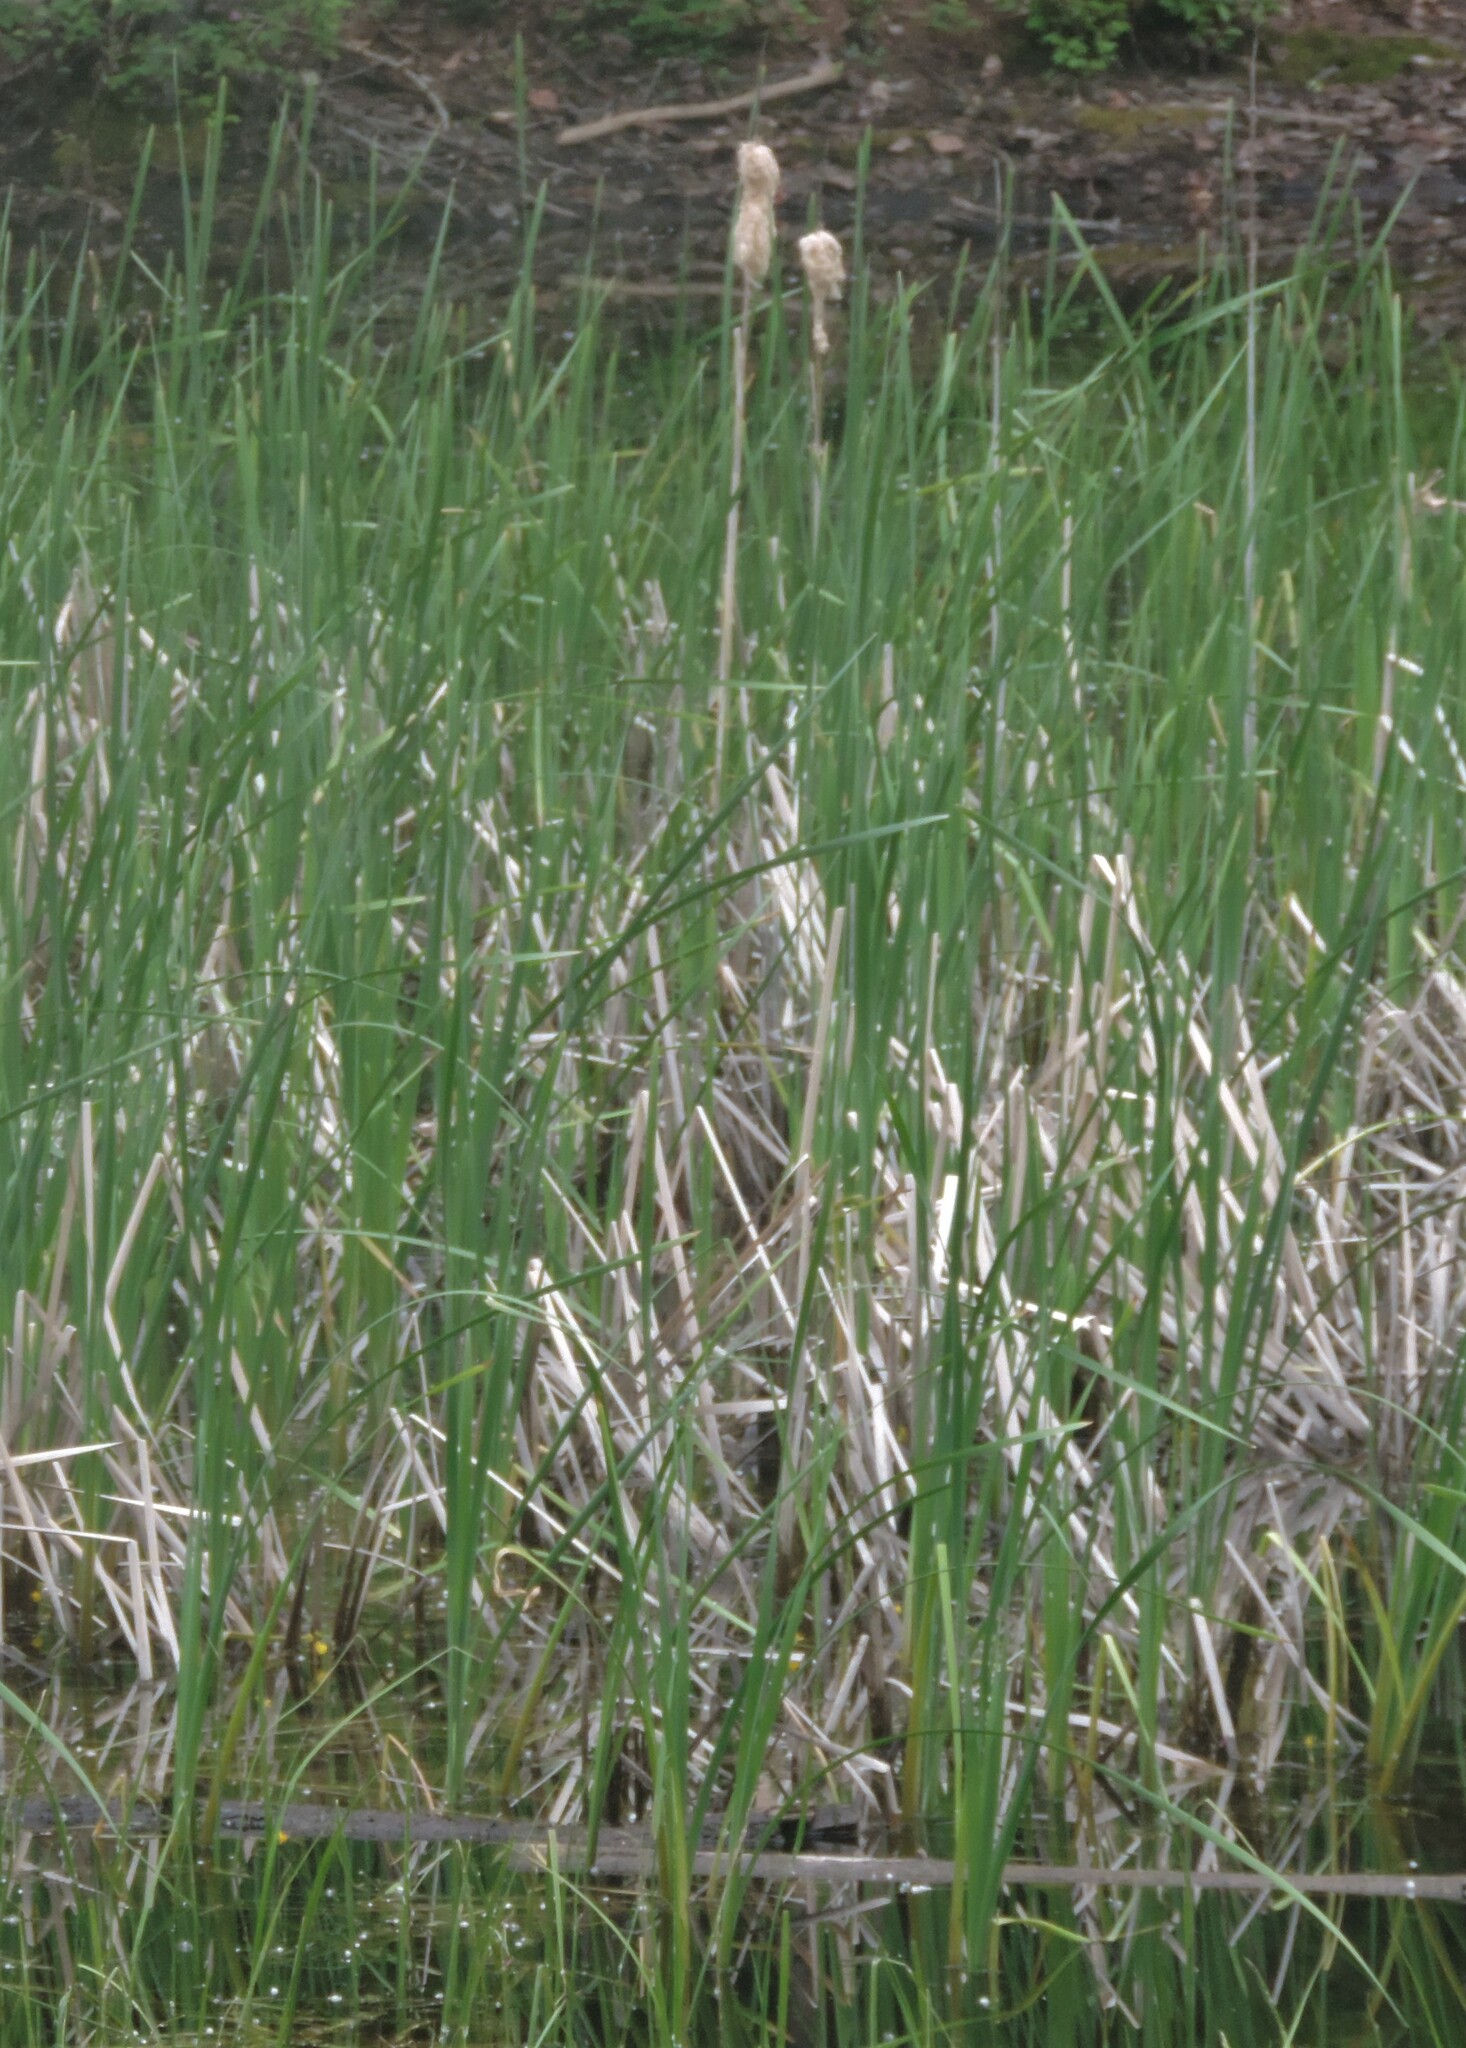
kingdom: Plantae
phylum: Tracheophyta
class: Liliopsida
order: Poales
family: Typhaceae
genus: Typha
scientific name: Typha latifolia
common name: Broadleaf cattail
